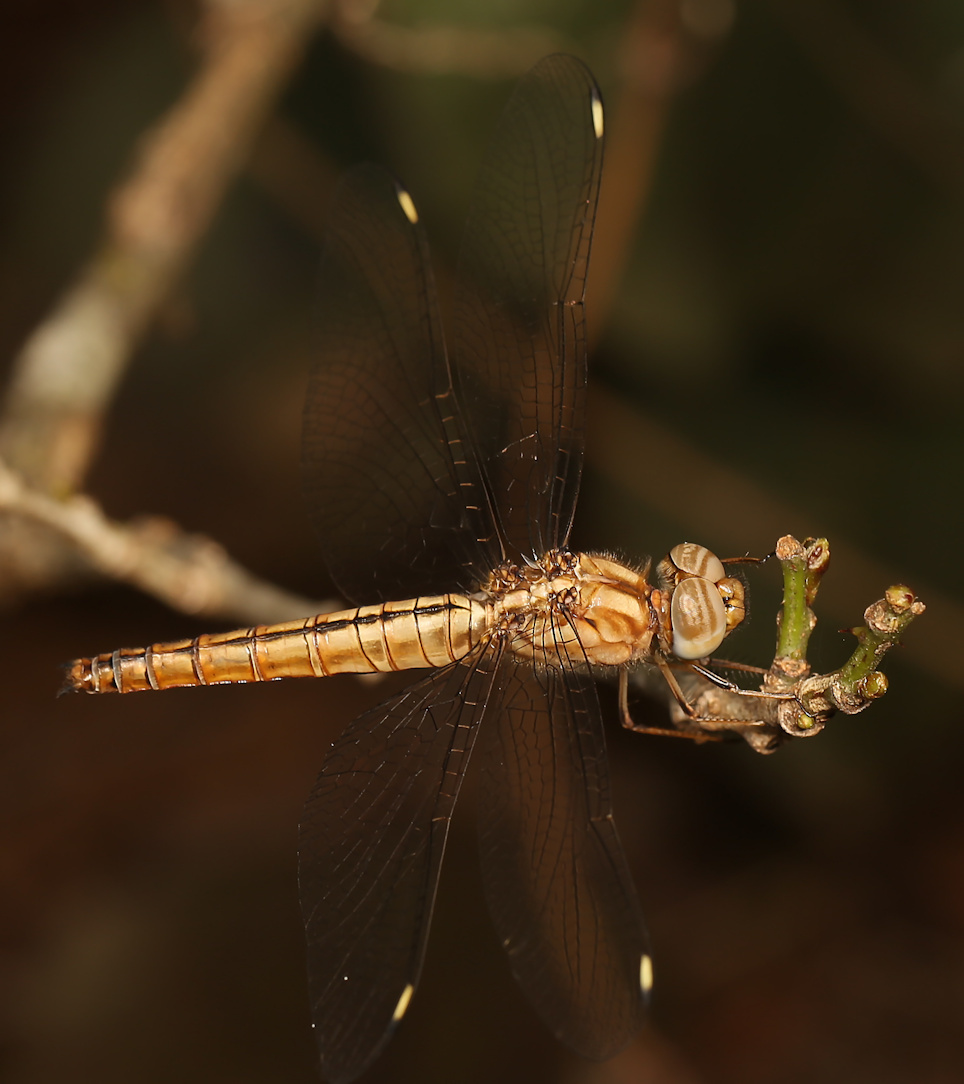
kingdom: Animalia
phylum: Arthropoda
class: Insecta
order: Odonata
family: Libellulidae
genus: Brachythemis
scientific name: Brachythemis lacustris
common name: Red groundling
